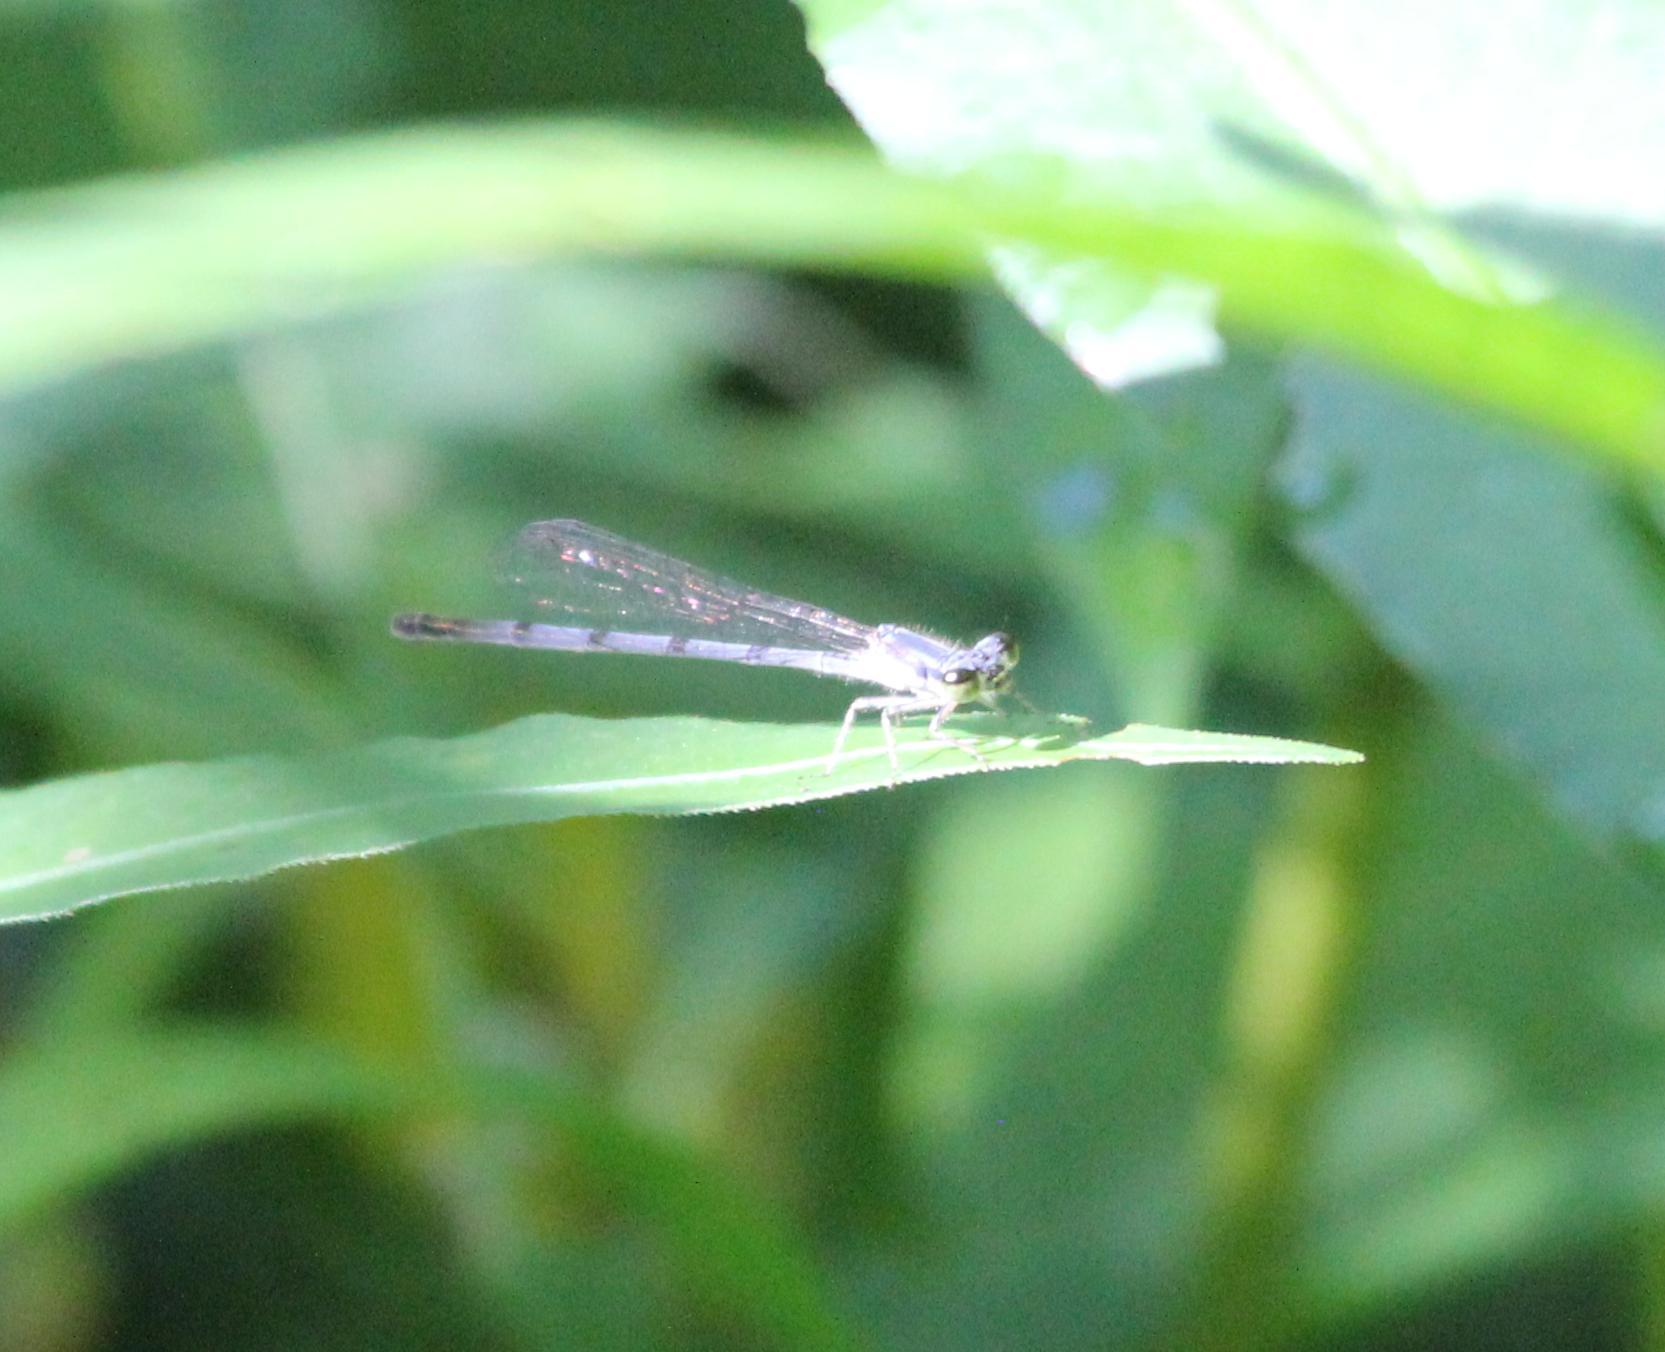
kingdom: Animalia
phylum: Arthropoda
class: Insecta
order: Odonata
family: Coenagrionidae
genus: Ischnura
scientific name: Ischnura posita
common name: Fragile forktail
